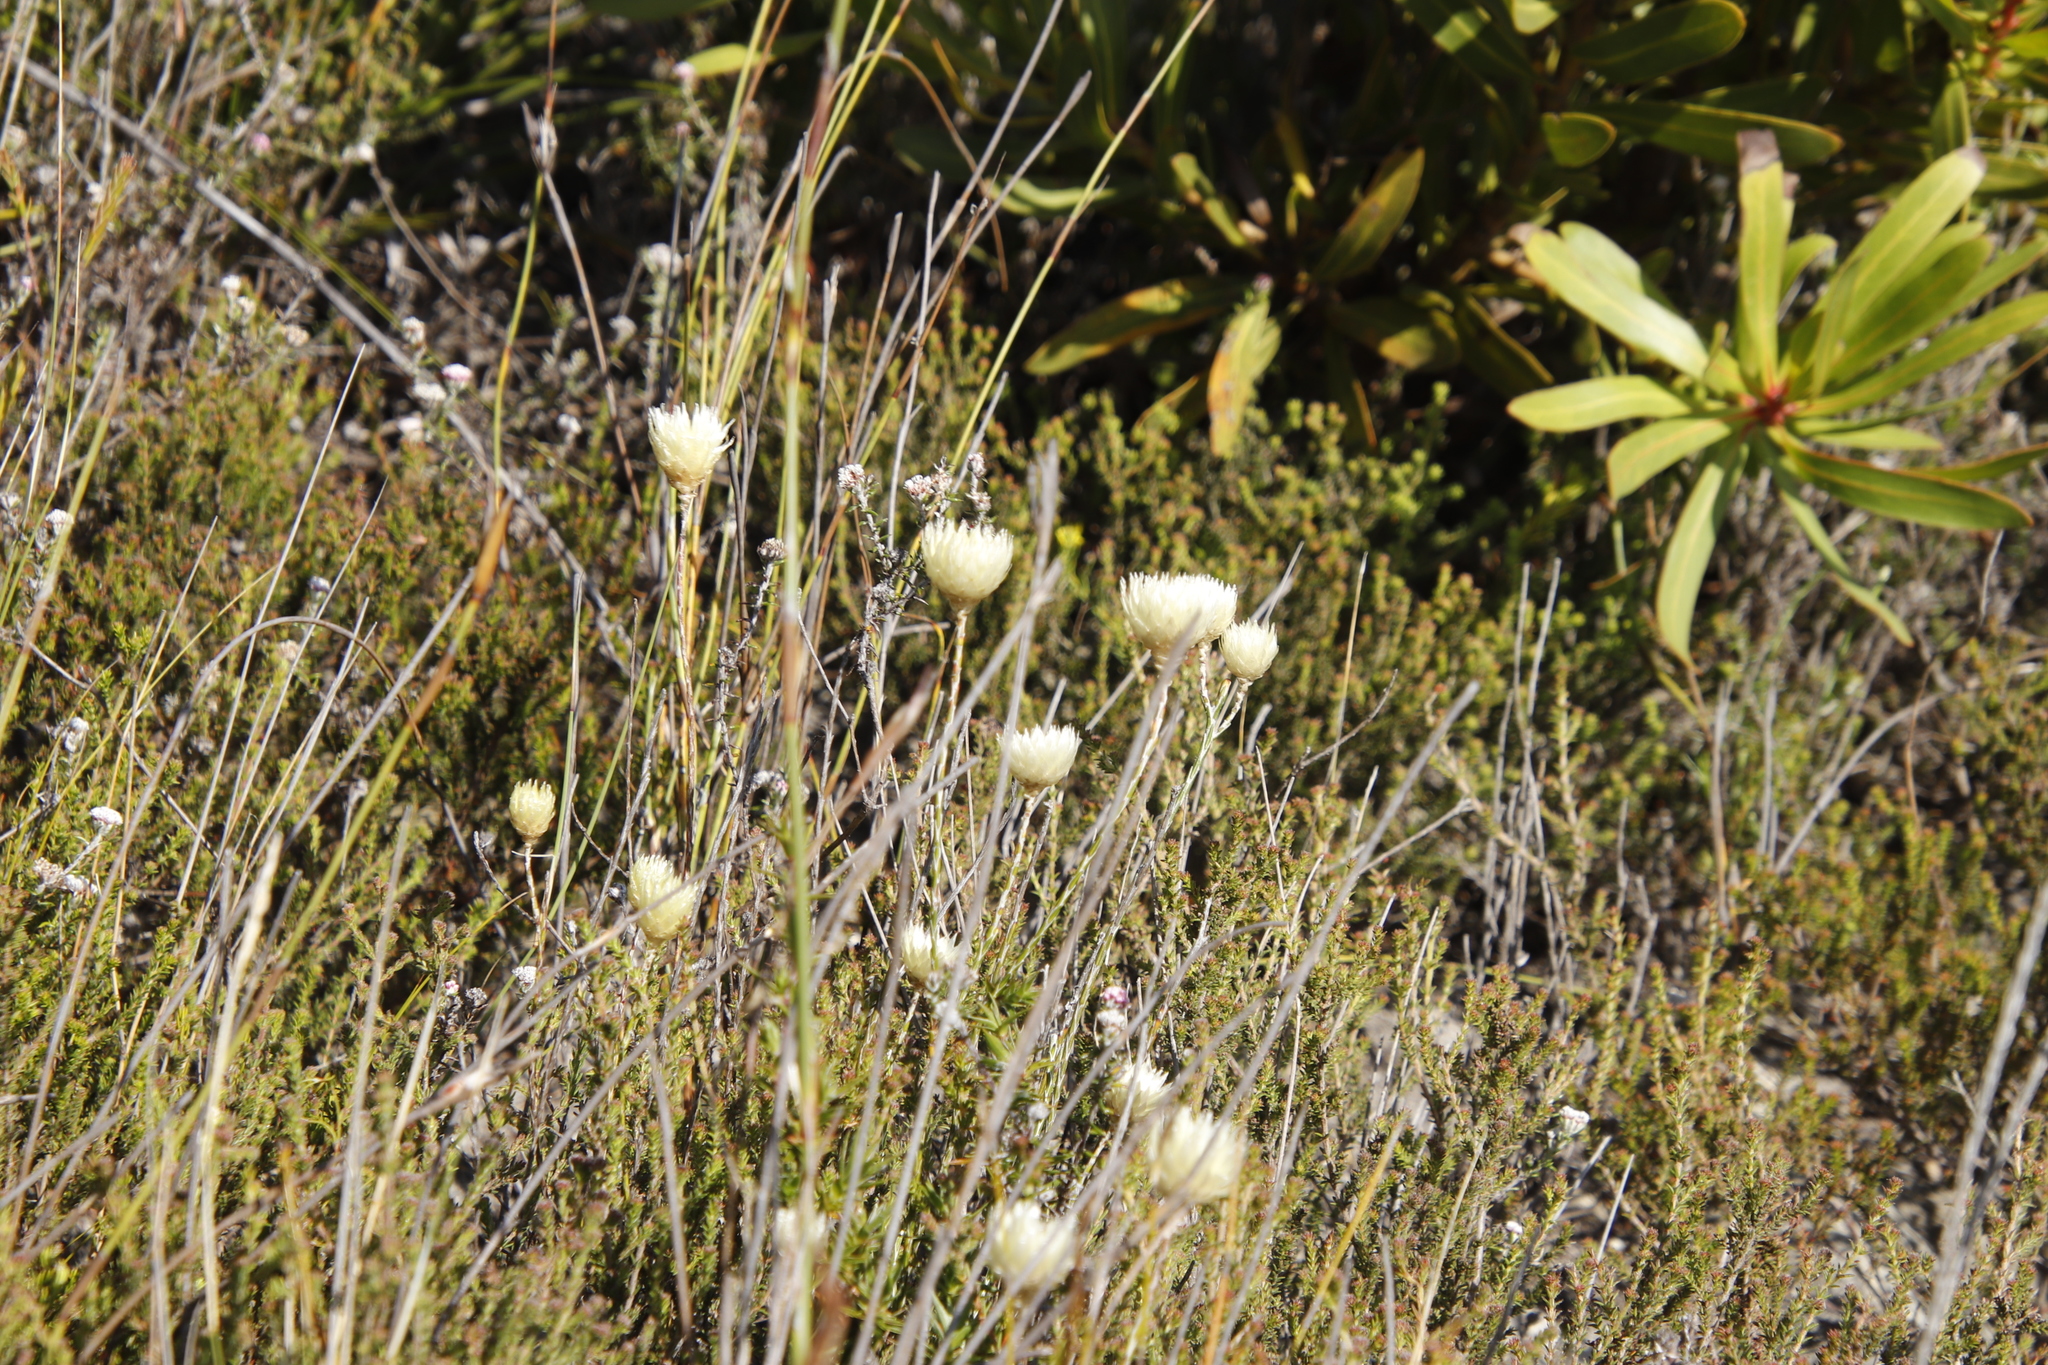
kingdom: Plantae
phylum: Tracheophyta
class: Magnoliopsida
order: Asterales
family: Asteraceae
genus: Edmondia
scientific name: Edmondia sesamoides
